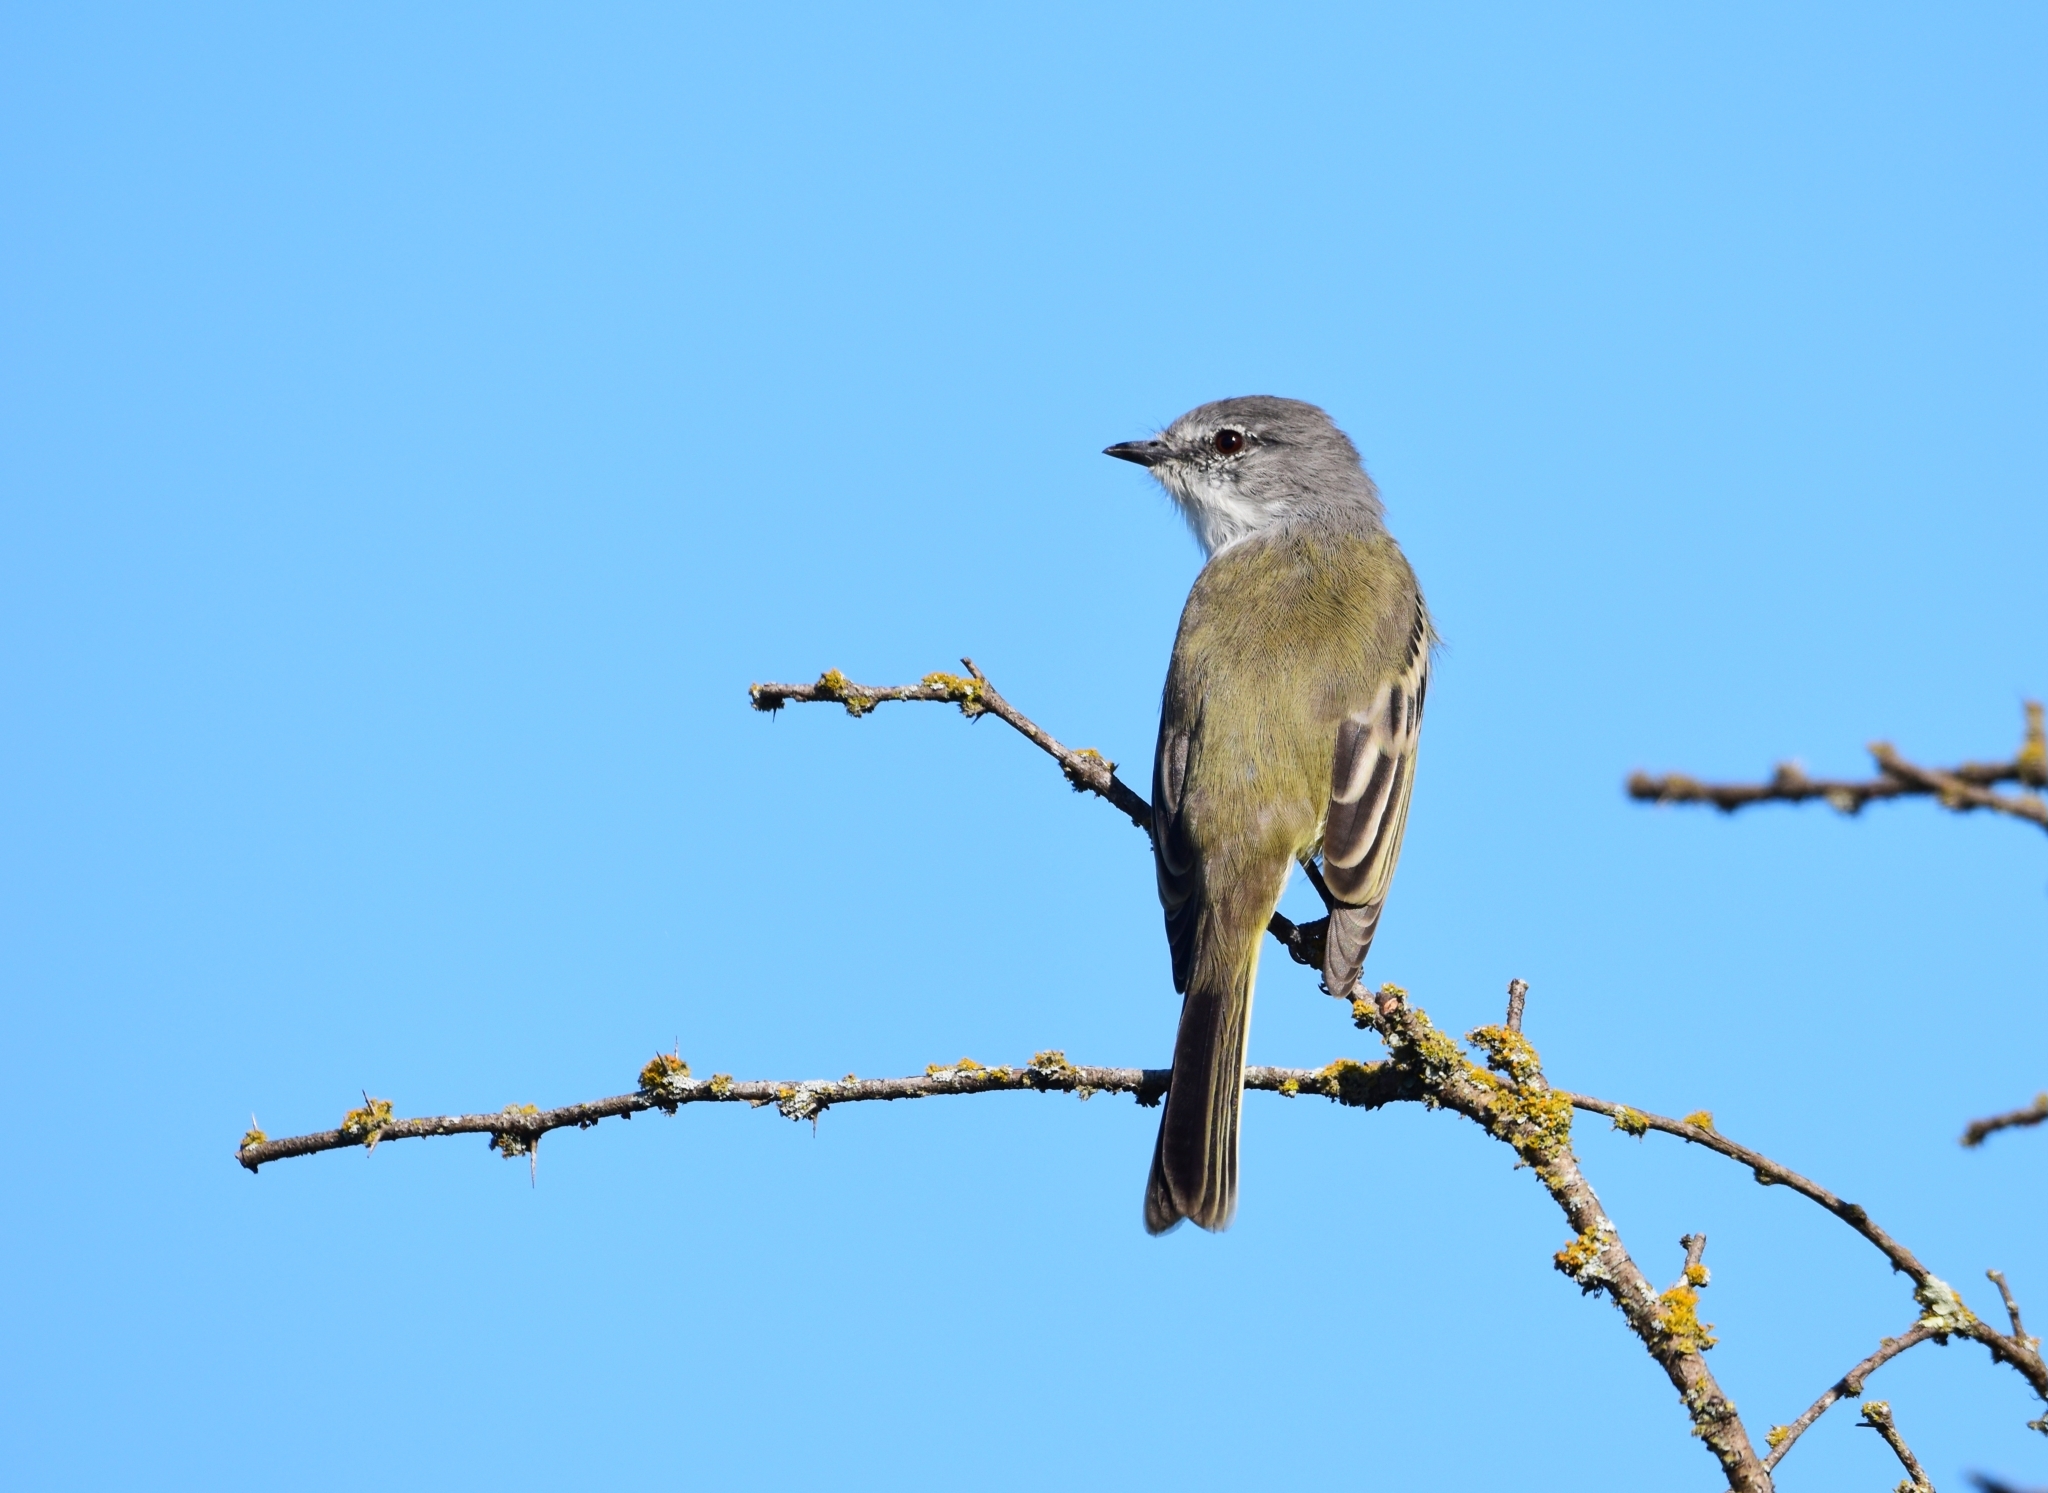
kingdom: Animalia
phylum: Chordata
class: Aves
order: Passeriformes
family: Tyrannidae
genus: Suiriri
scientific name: Suiriri suiriri
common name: Suiriri flycatcher
